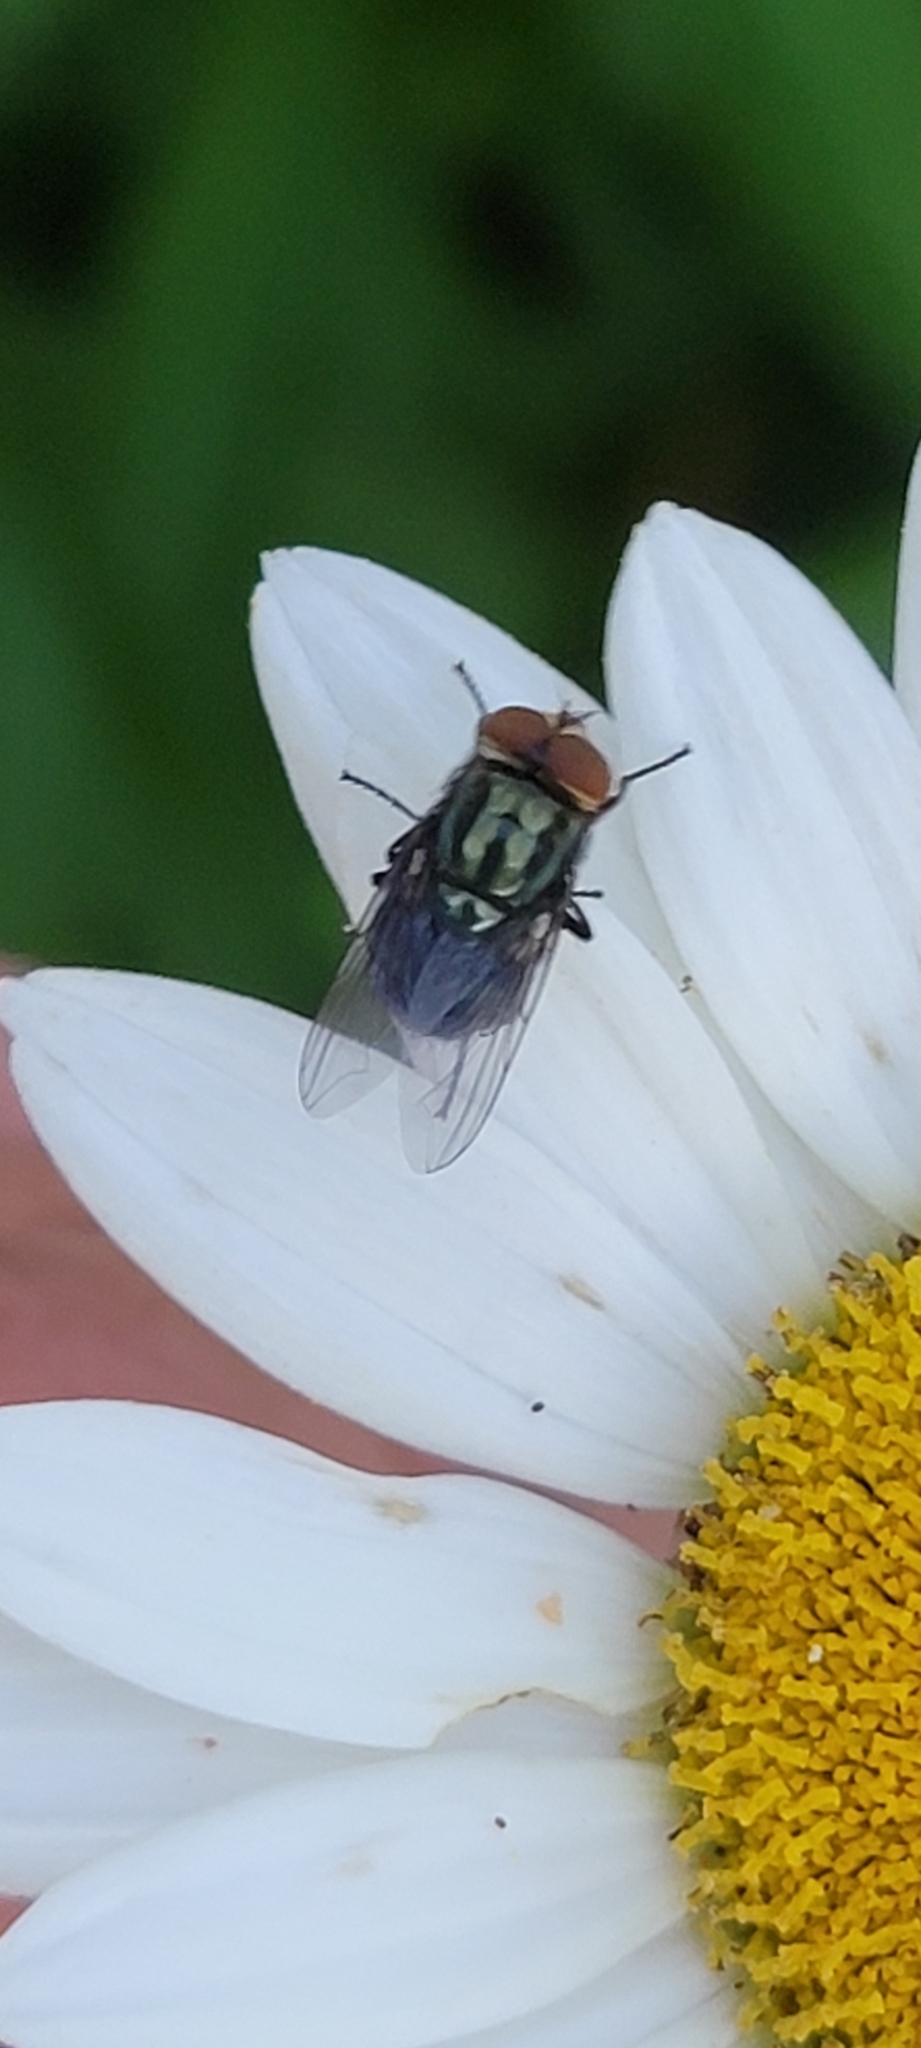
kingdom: Animalia
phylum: Arthropoda
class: Insecta
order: Diptera
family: Calliphoridae
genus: Cochliomyia
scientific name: Cochliomyia macellaria
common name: Secondary screwworm
